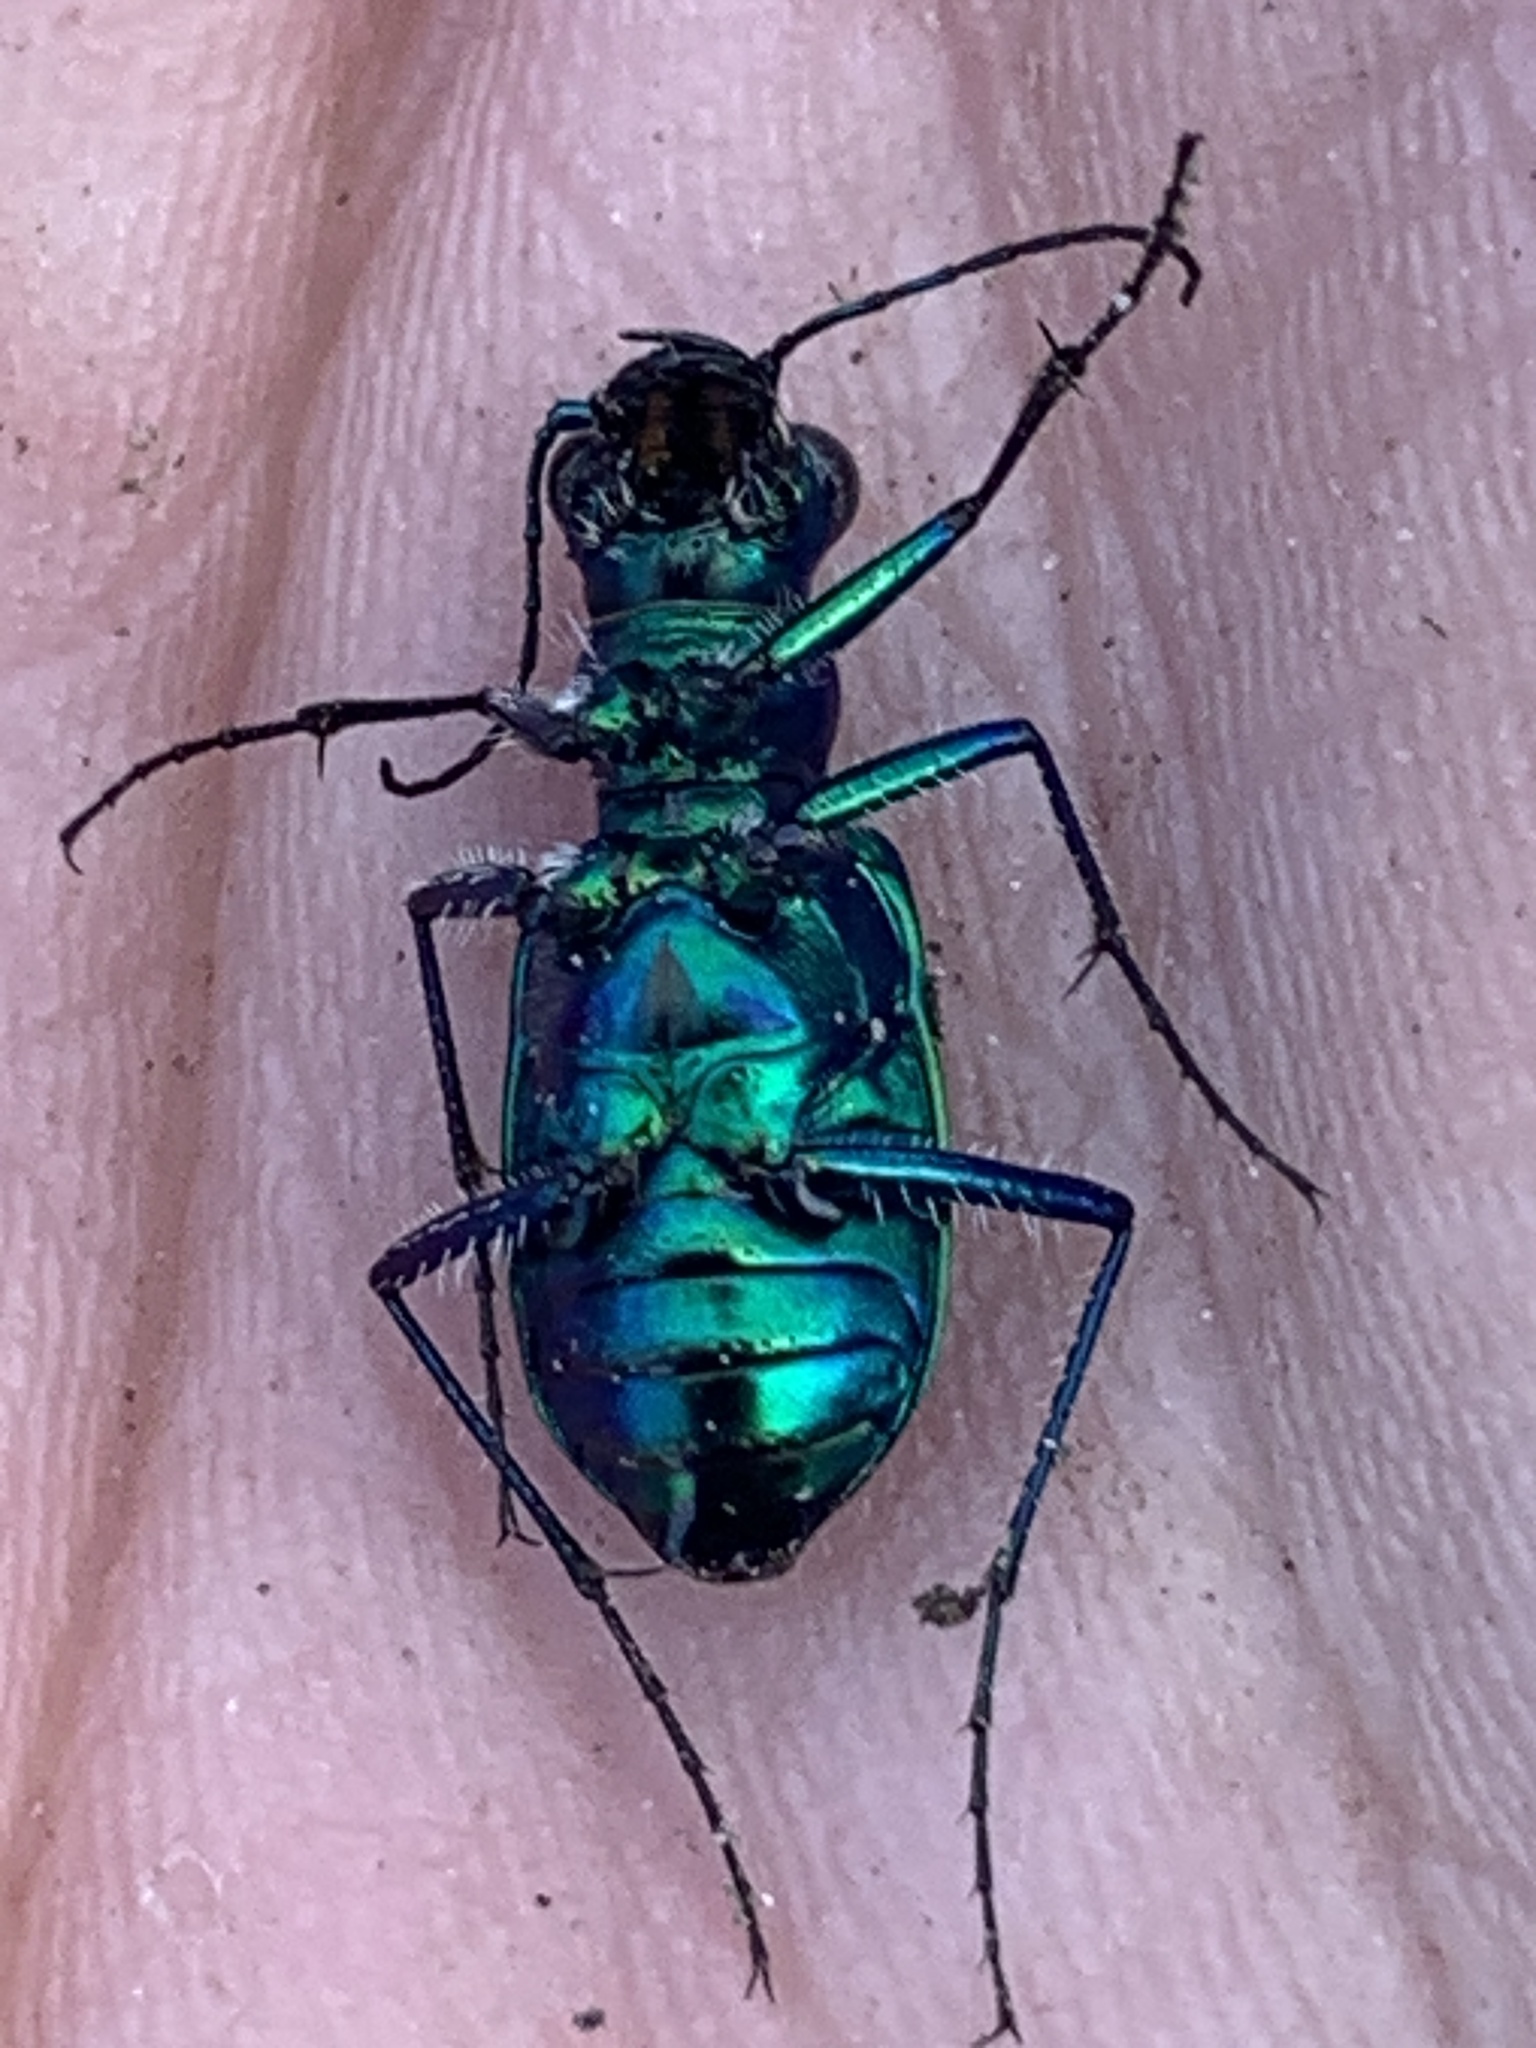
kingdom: Animalia
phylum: Arthropoda
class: Insecta
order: Coleoptera
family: Carabidae
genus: Cicindela
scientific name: Cicindela sexguttata
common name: Six-spotted tiger beetle
